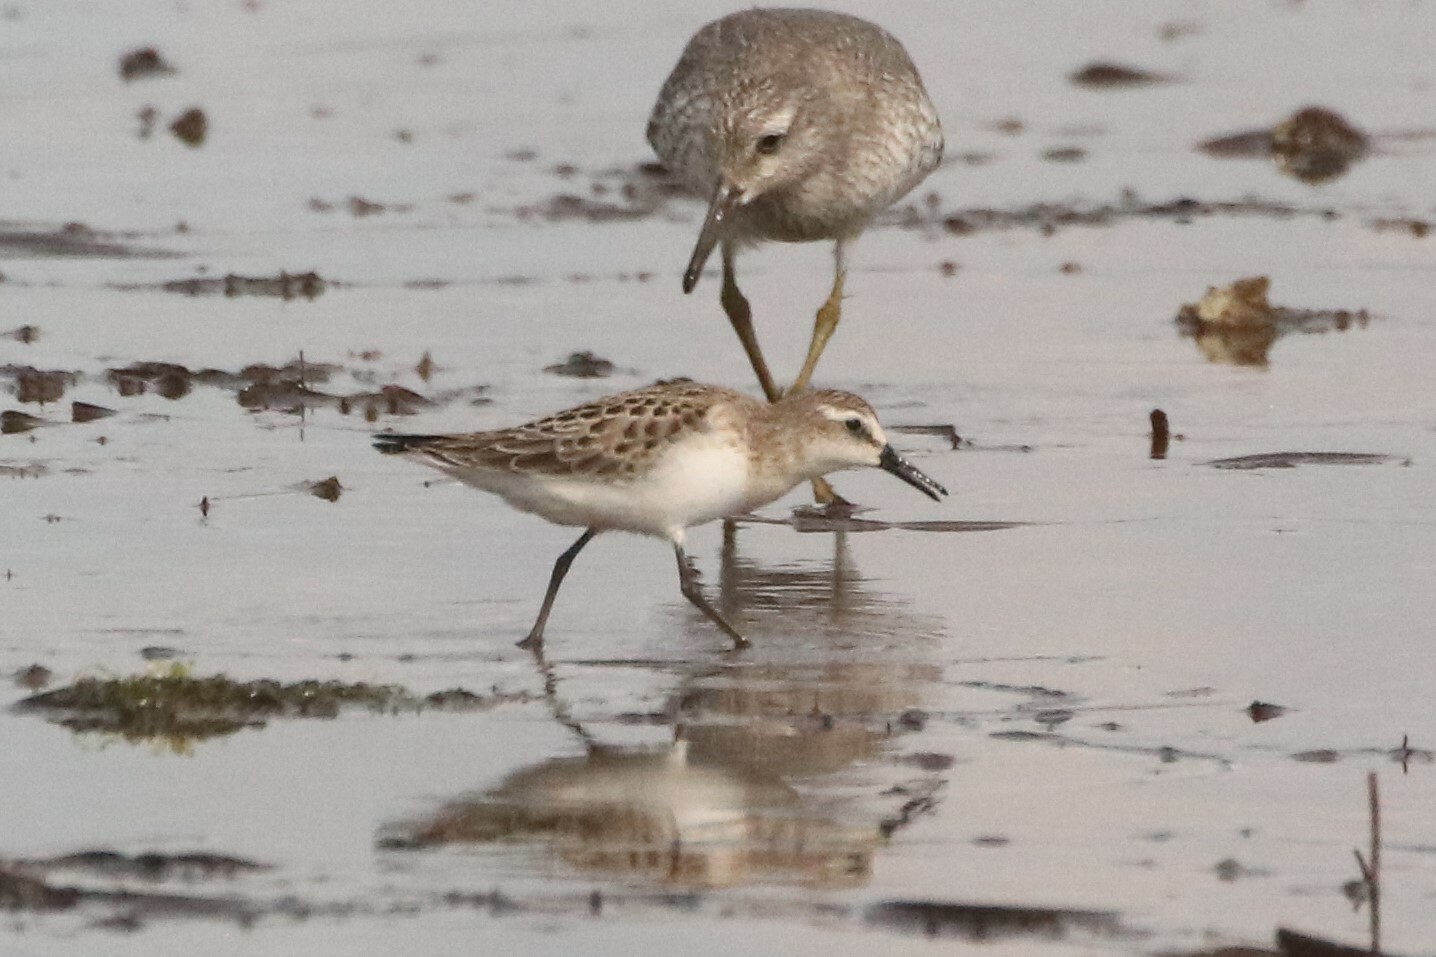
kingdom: Animalia
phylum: Chordata
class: Aves
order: Charadriiformes
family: Scolopacidae
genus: Calidris
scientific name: Calidris pusilla
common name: Semipalmated sandpiper
